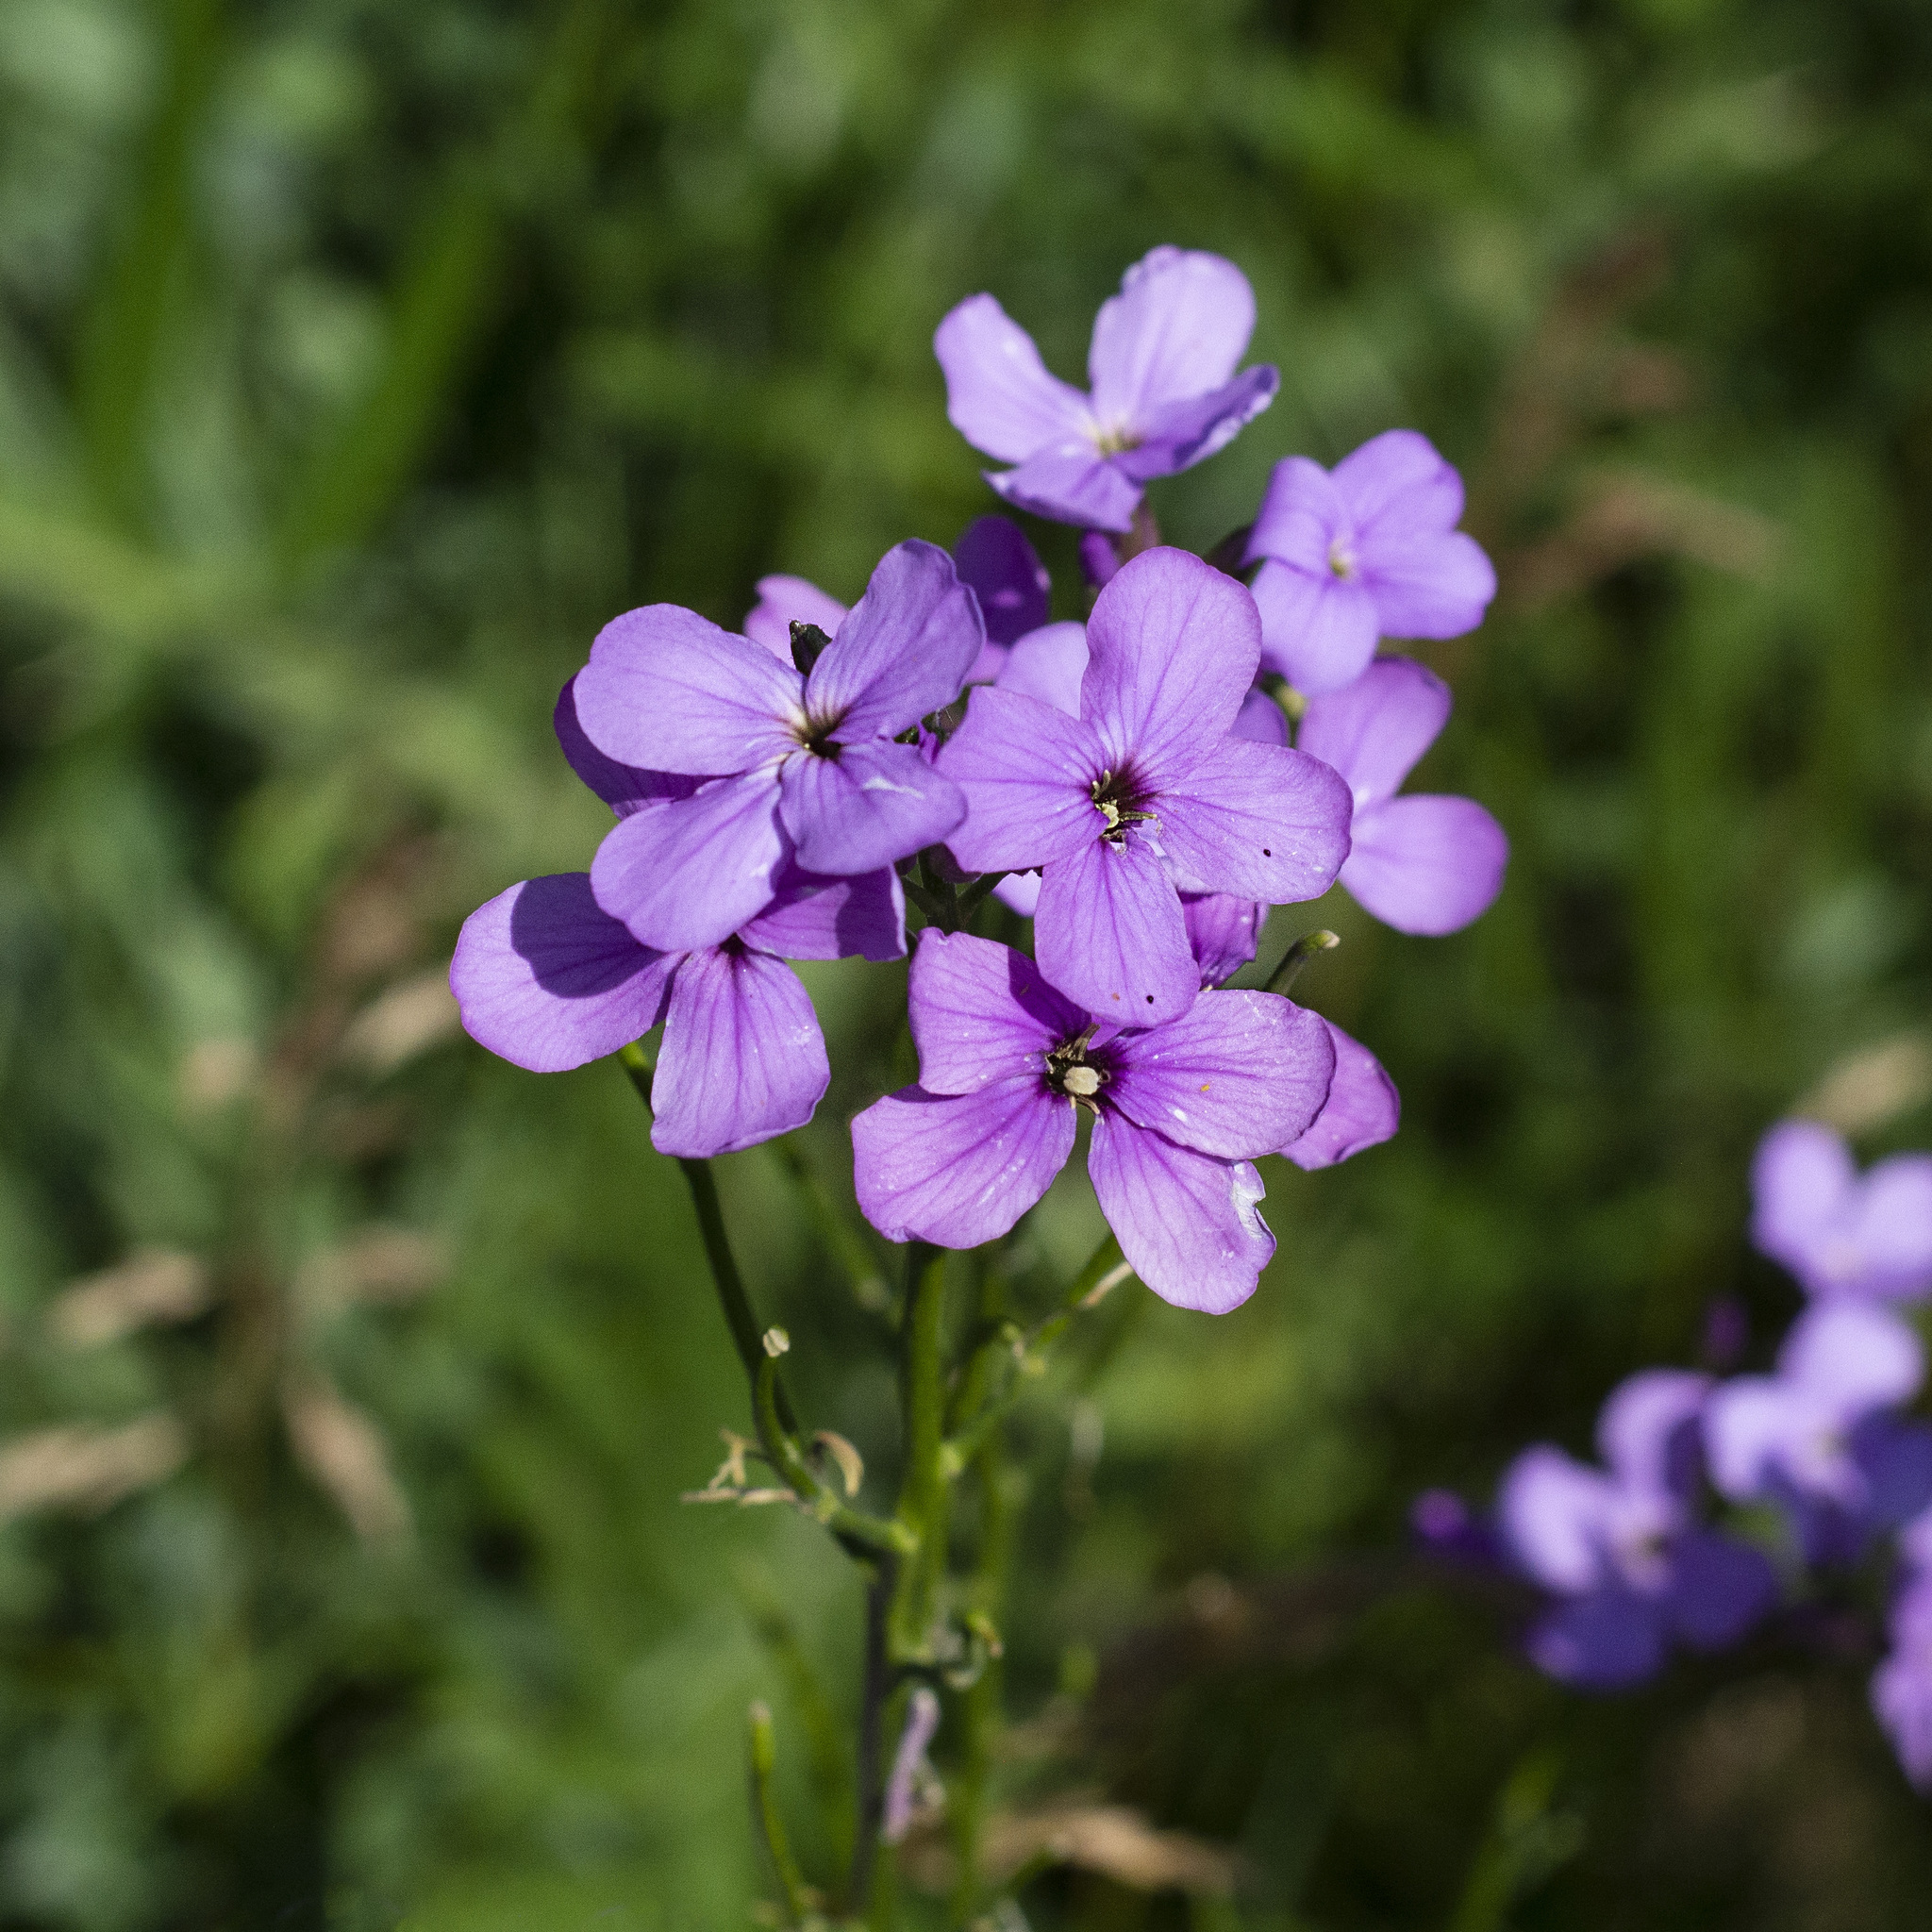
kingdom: Plantae
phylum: Tracheophyta
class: Magnoliopsida
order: Brassicales
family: Brassicaceae
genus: Hesperis
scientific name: Hesperis matronalis
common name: Dame's-violet
